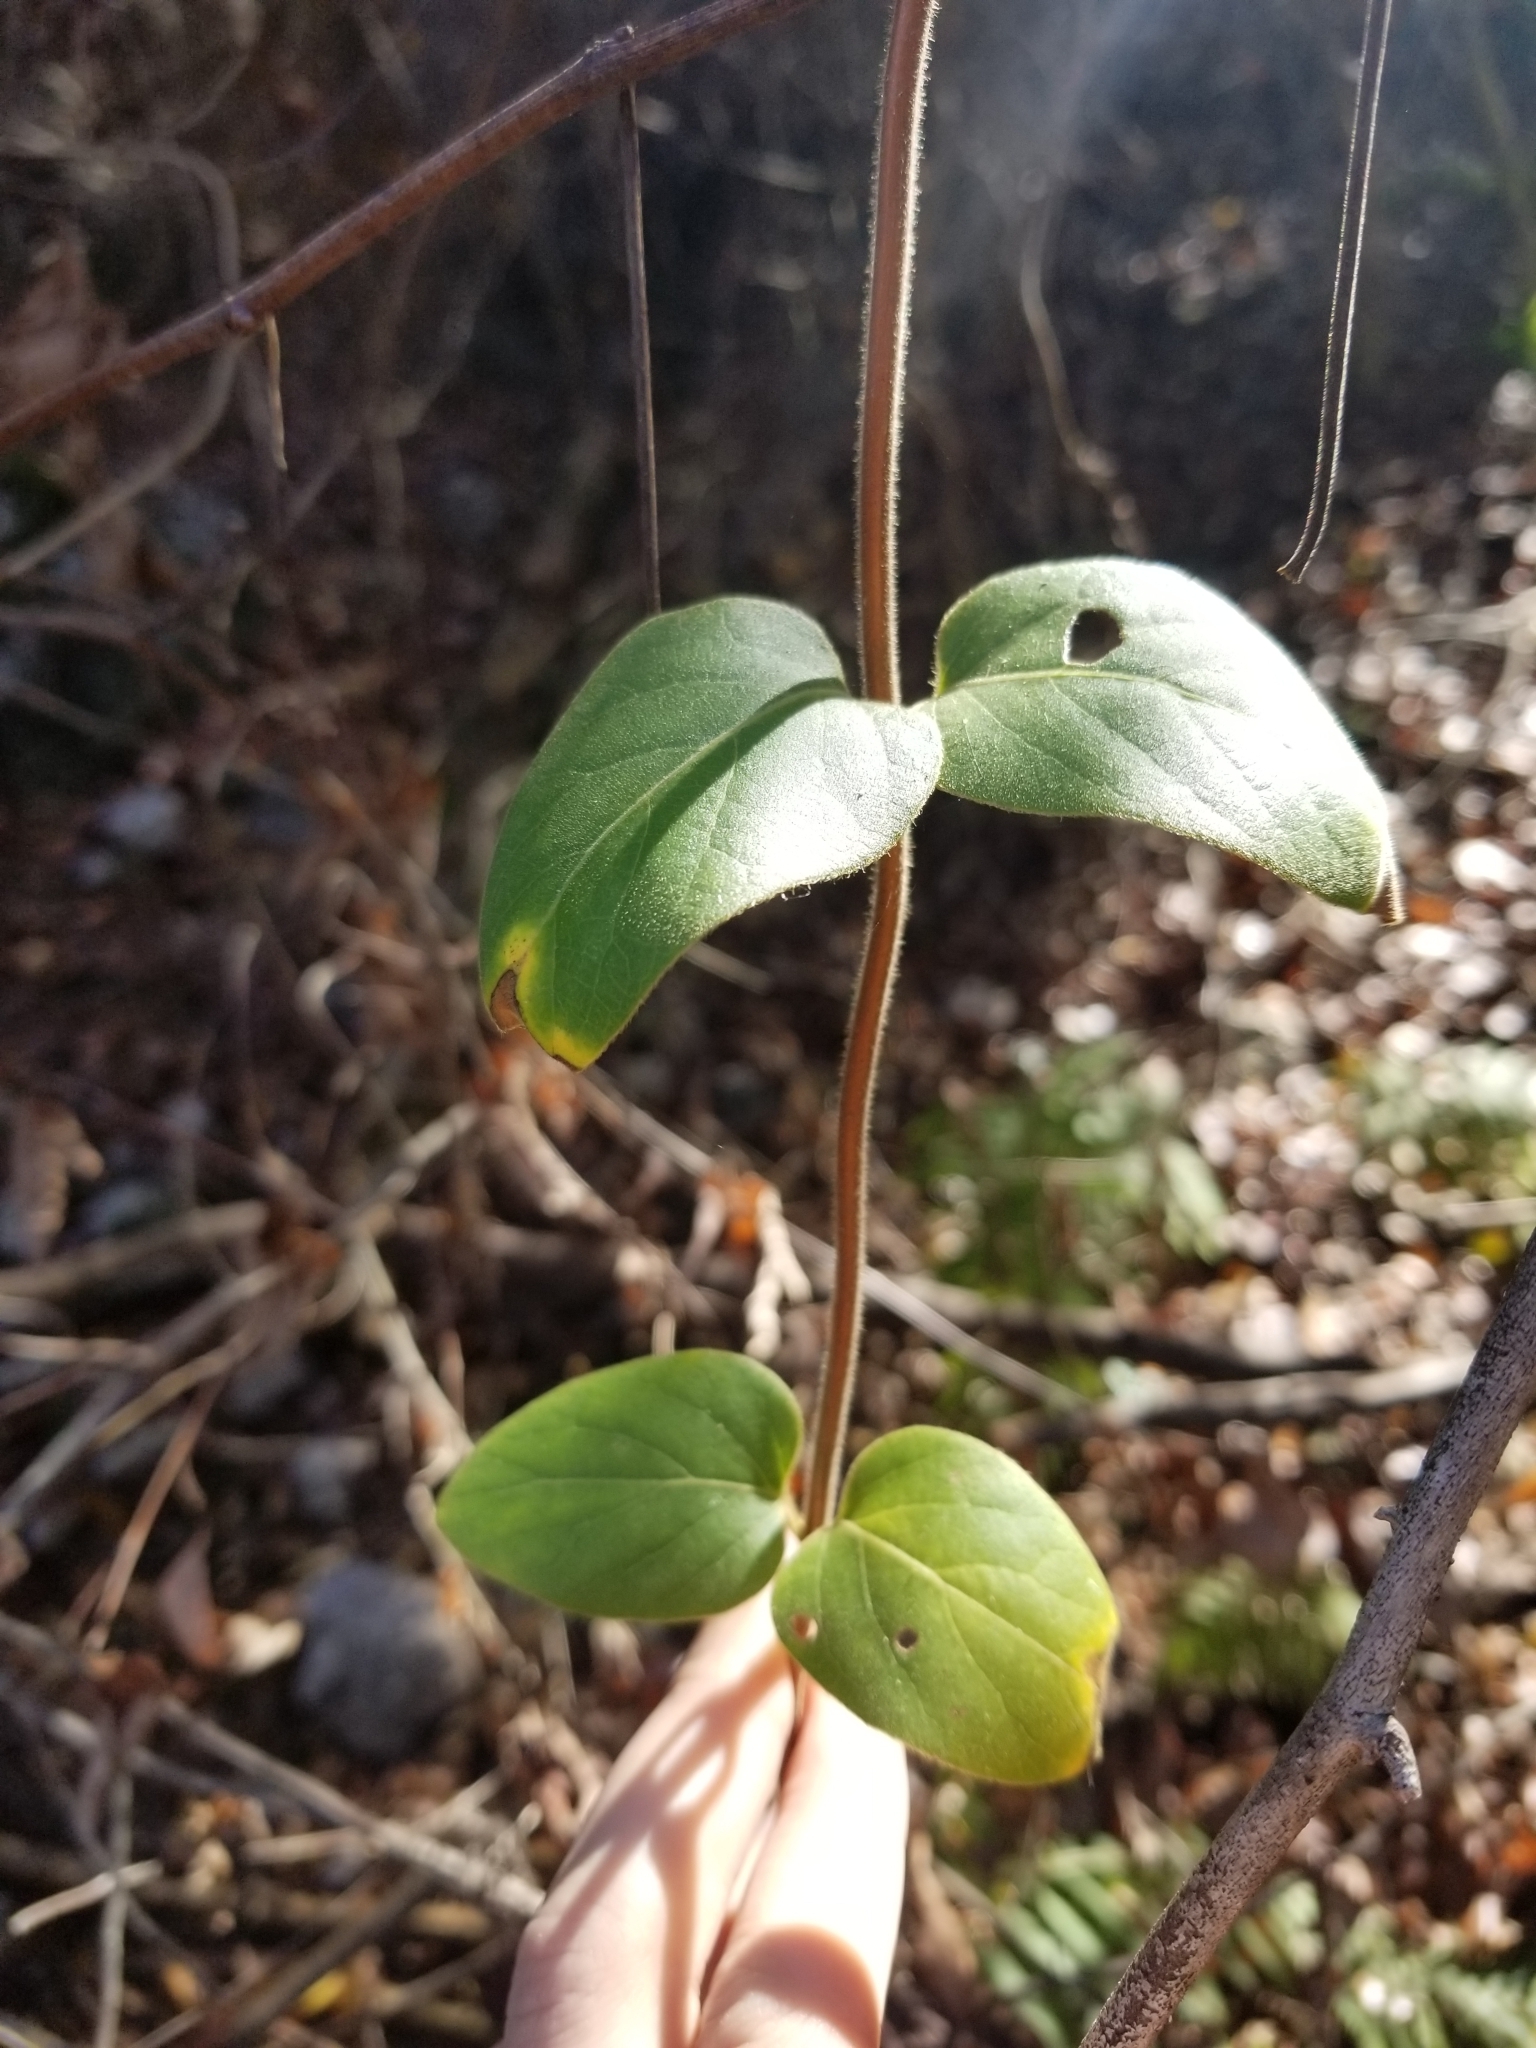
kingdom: Plantae
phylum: Tracheophyta
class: Magnoliopsida
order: Dipsacales
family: Caprifoliaceae
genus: Lonicera
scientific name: Lonicera japonica
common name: Japanese honeysuckle
